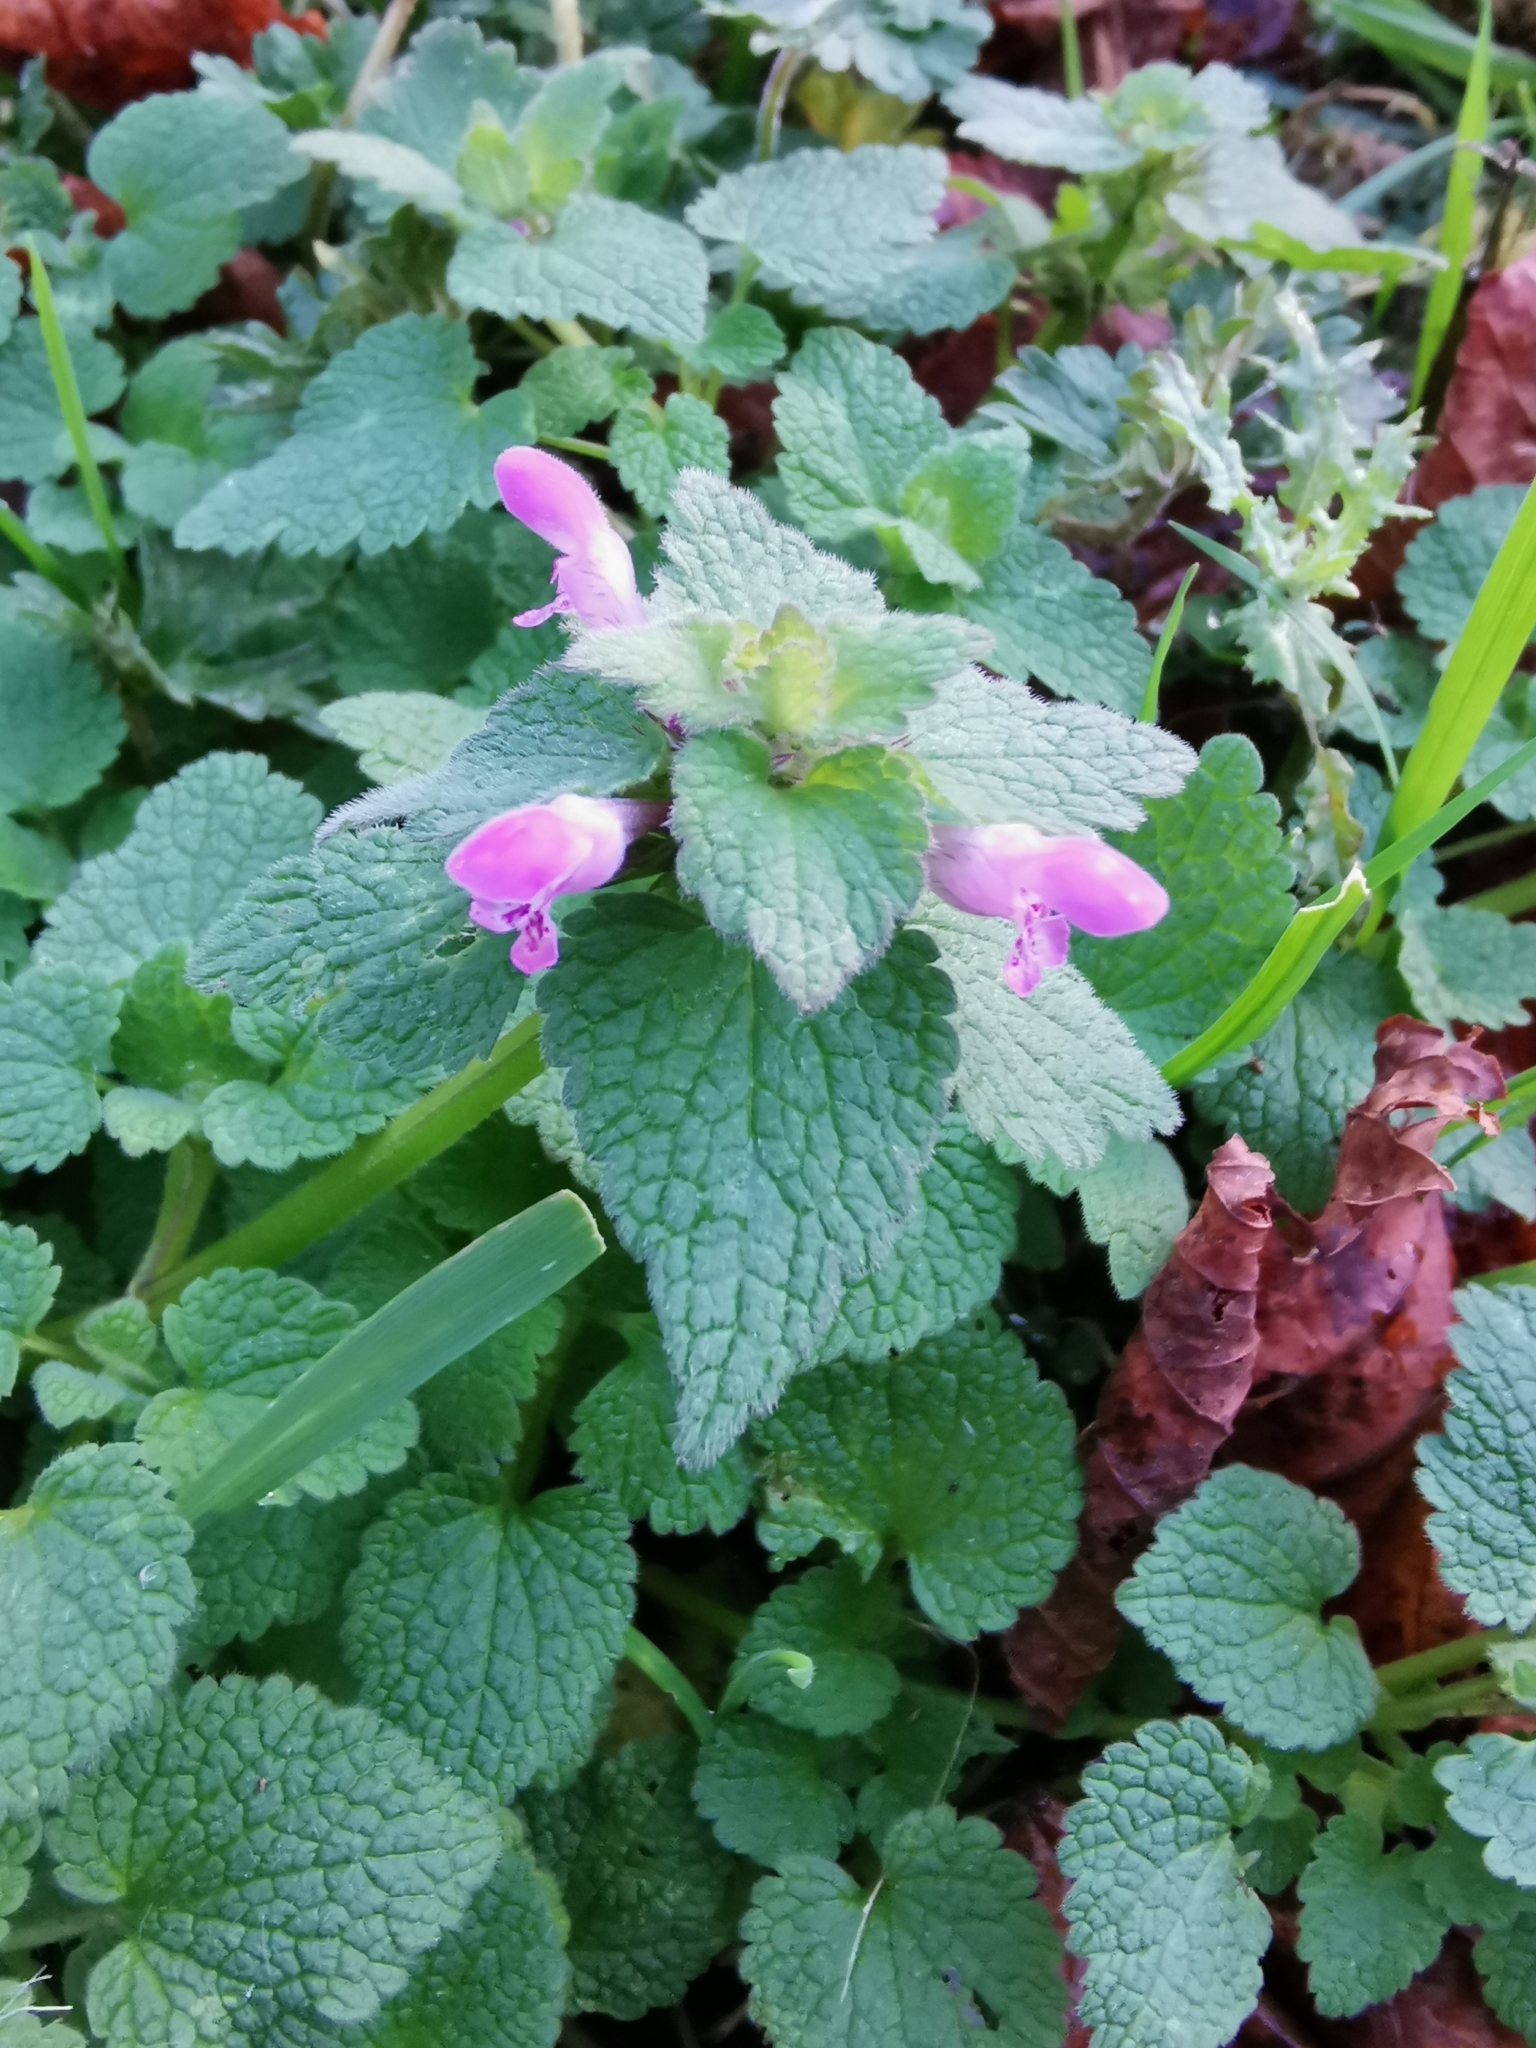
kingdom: Plantae
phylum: Tracheophyta
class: Magnoliopsida
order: Lamiales
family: Lamiaceae
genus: Lamium
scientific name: Lamium purpureum
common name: Red dead-nettle
